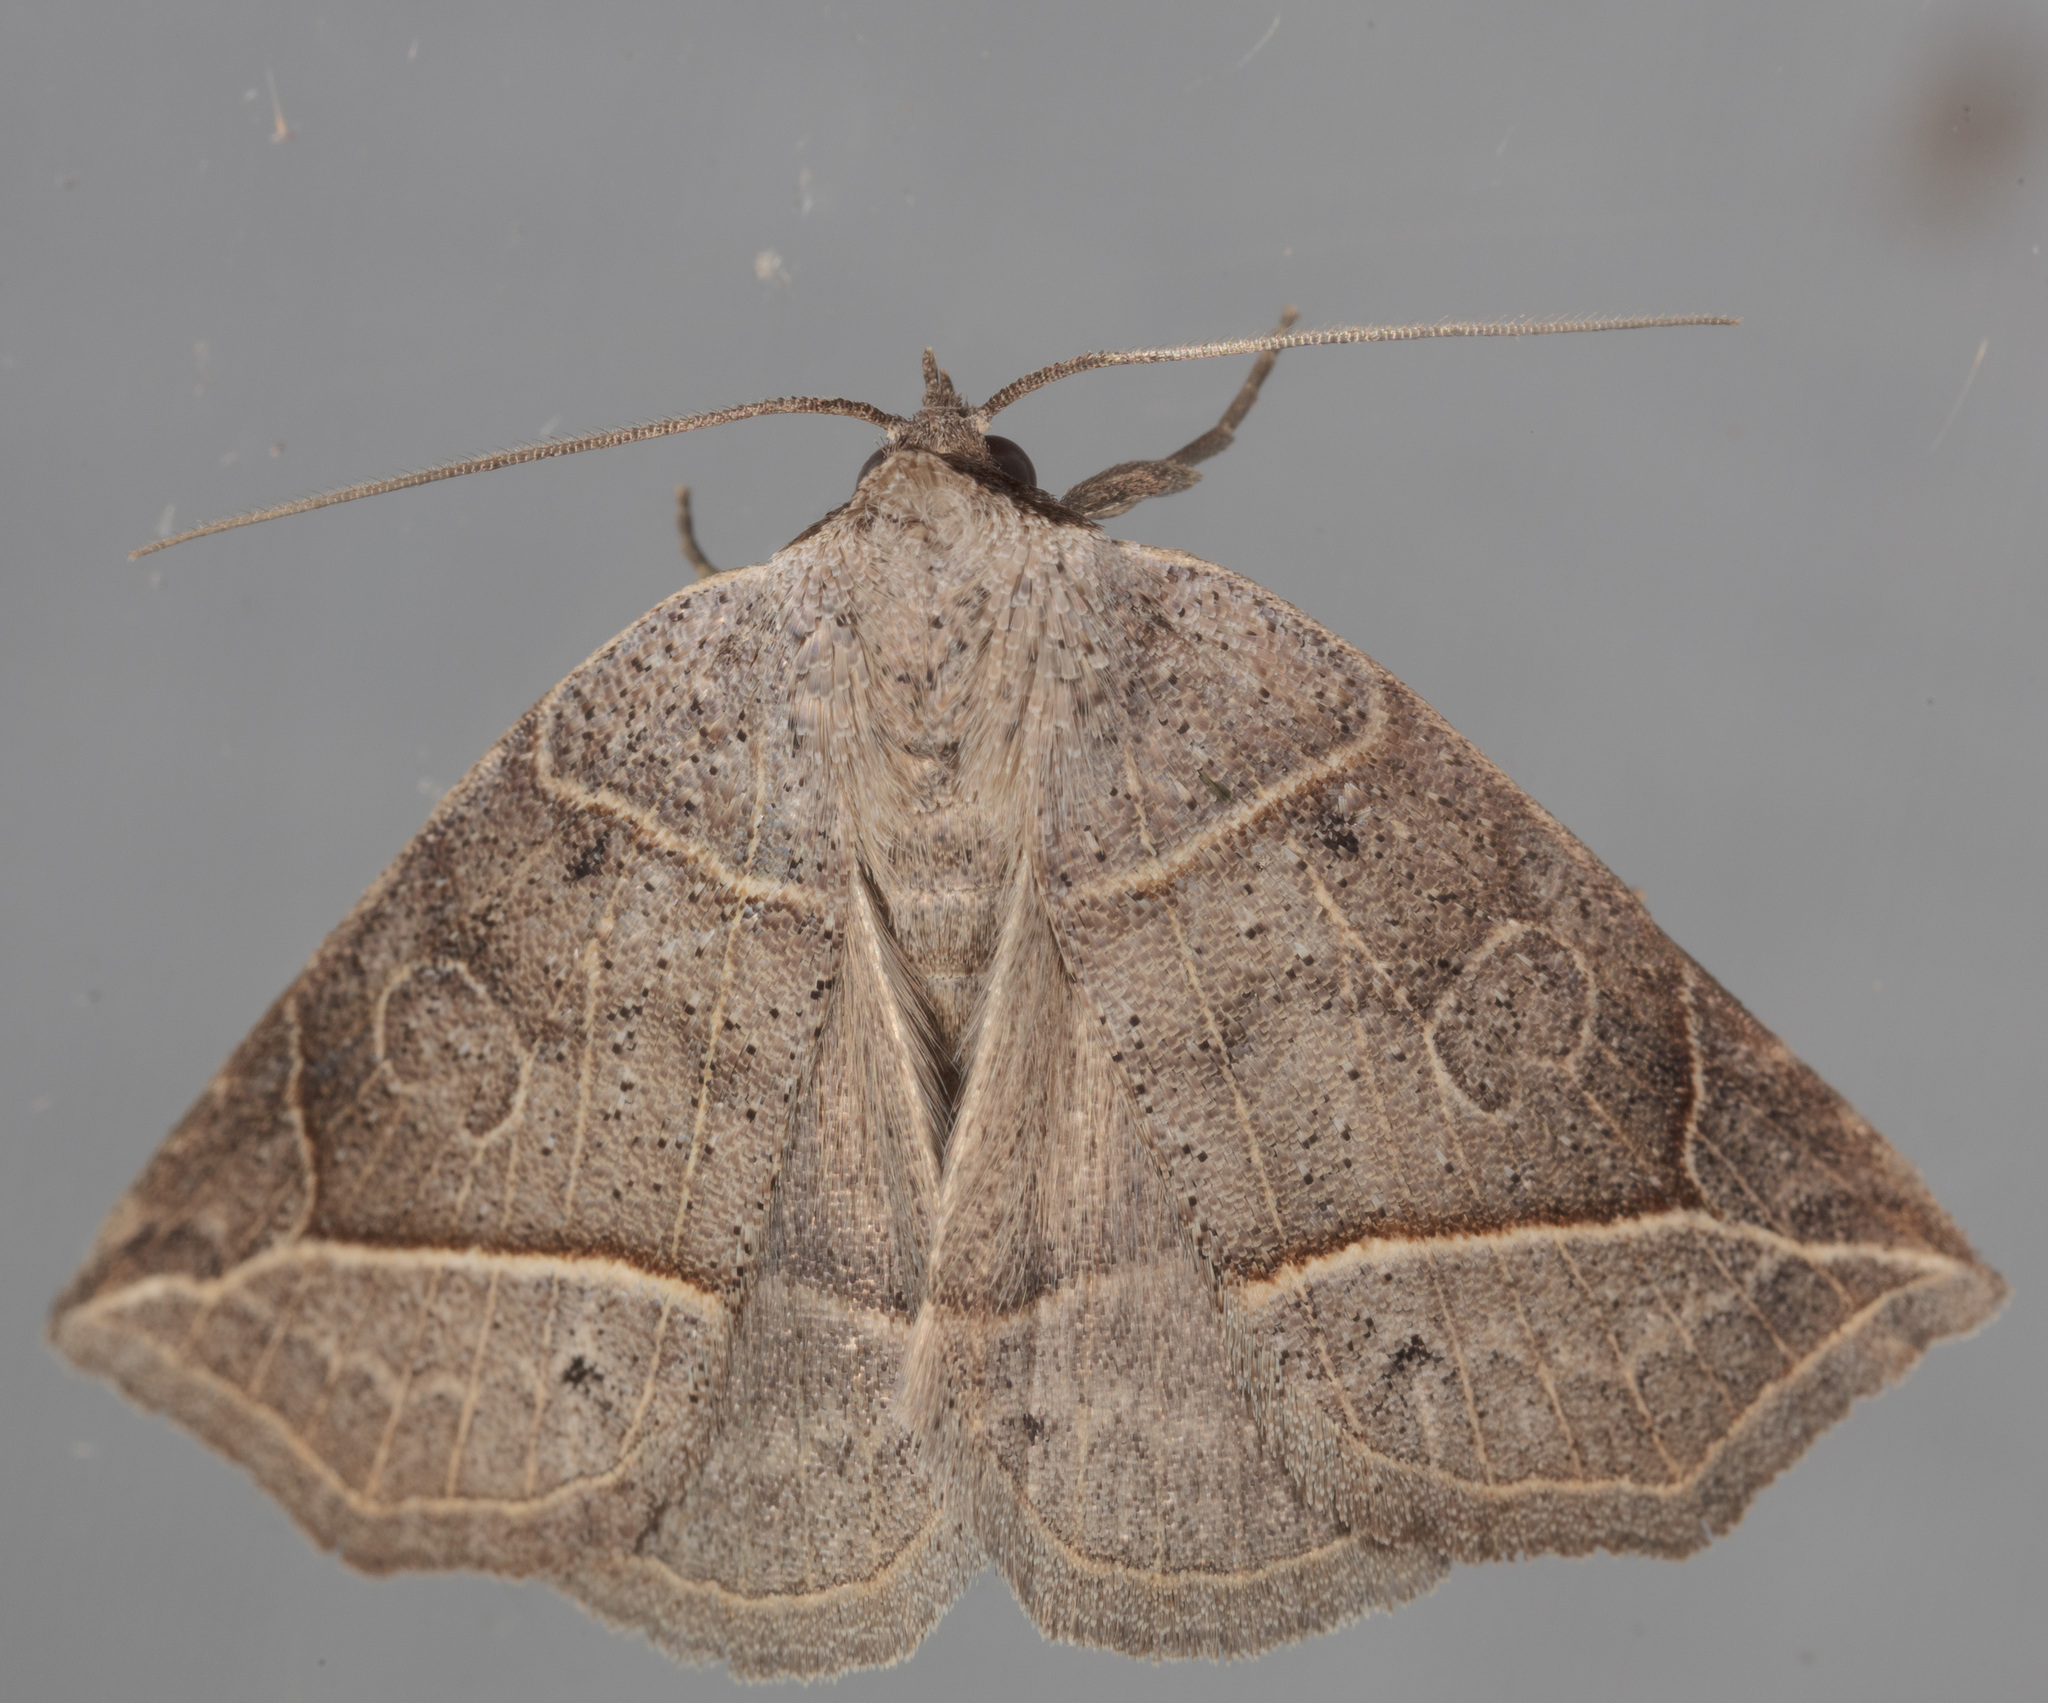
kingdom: Animalia
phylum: Arthropoda
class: Insecta
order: Lepidoptera
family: Erebidae
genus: Isogona
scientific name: Isogona tenuis
